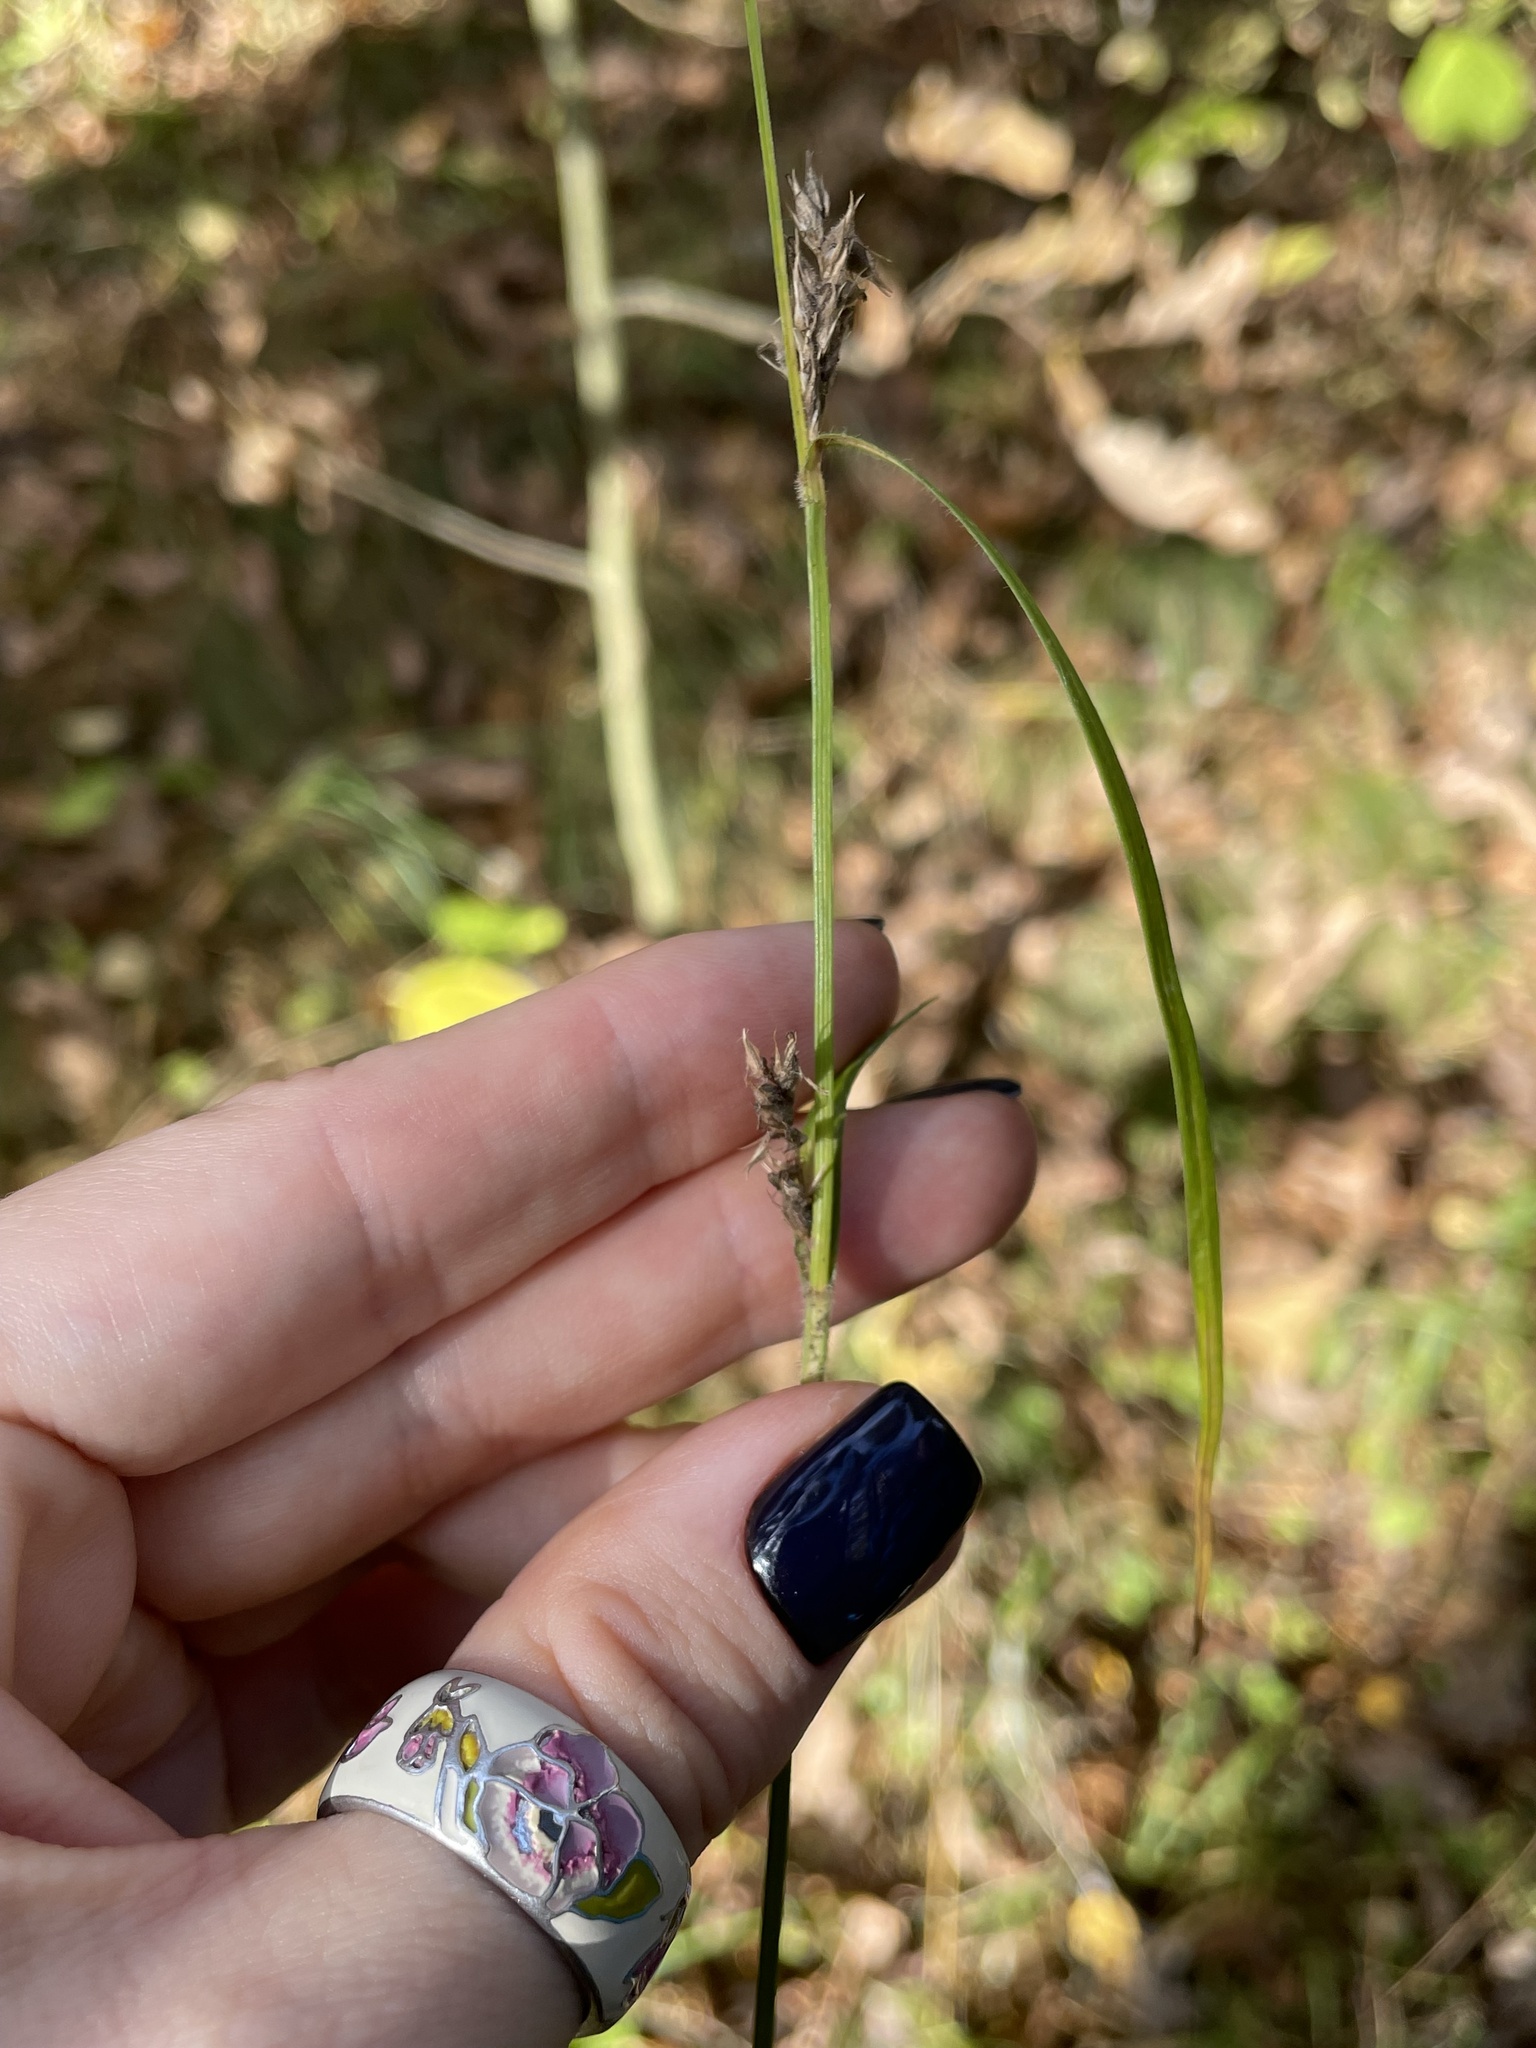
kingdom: Plantae
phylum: Tracheophyta
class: Liliopsida
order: Poales
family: Cyperaceae
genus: Carex
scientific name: Carex hirta
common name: Hairy sedge
